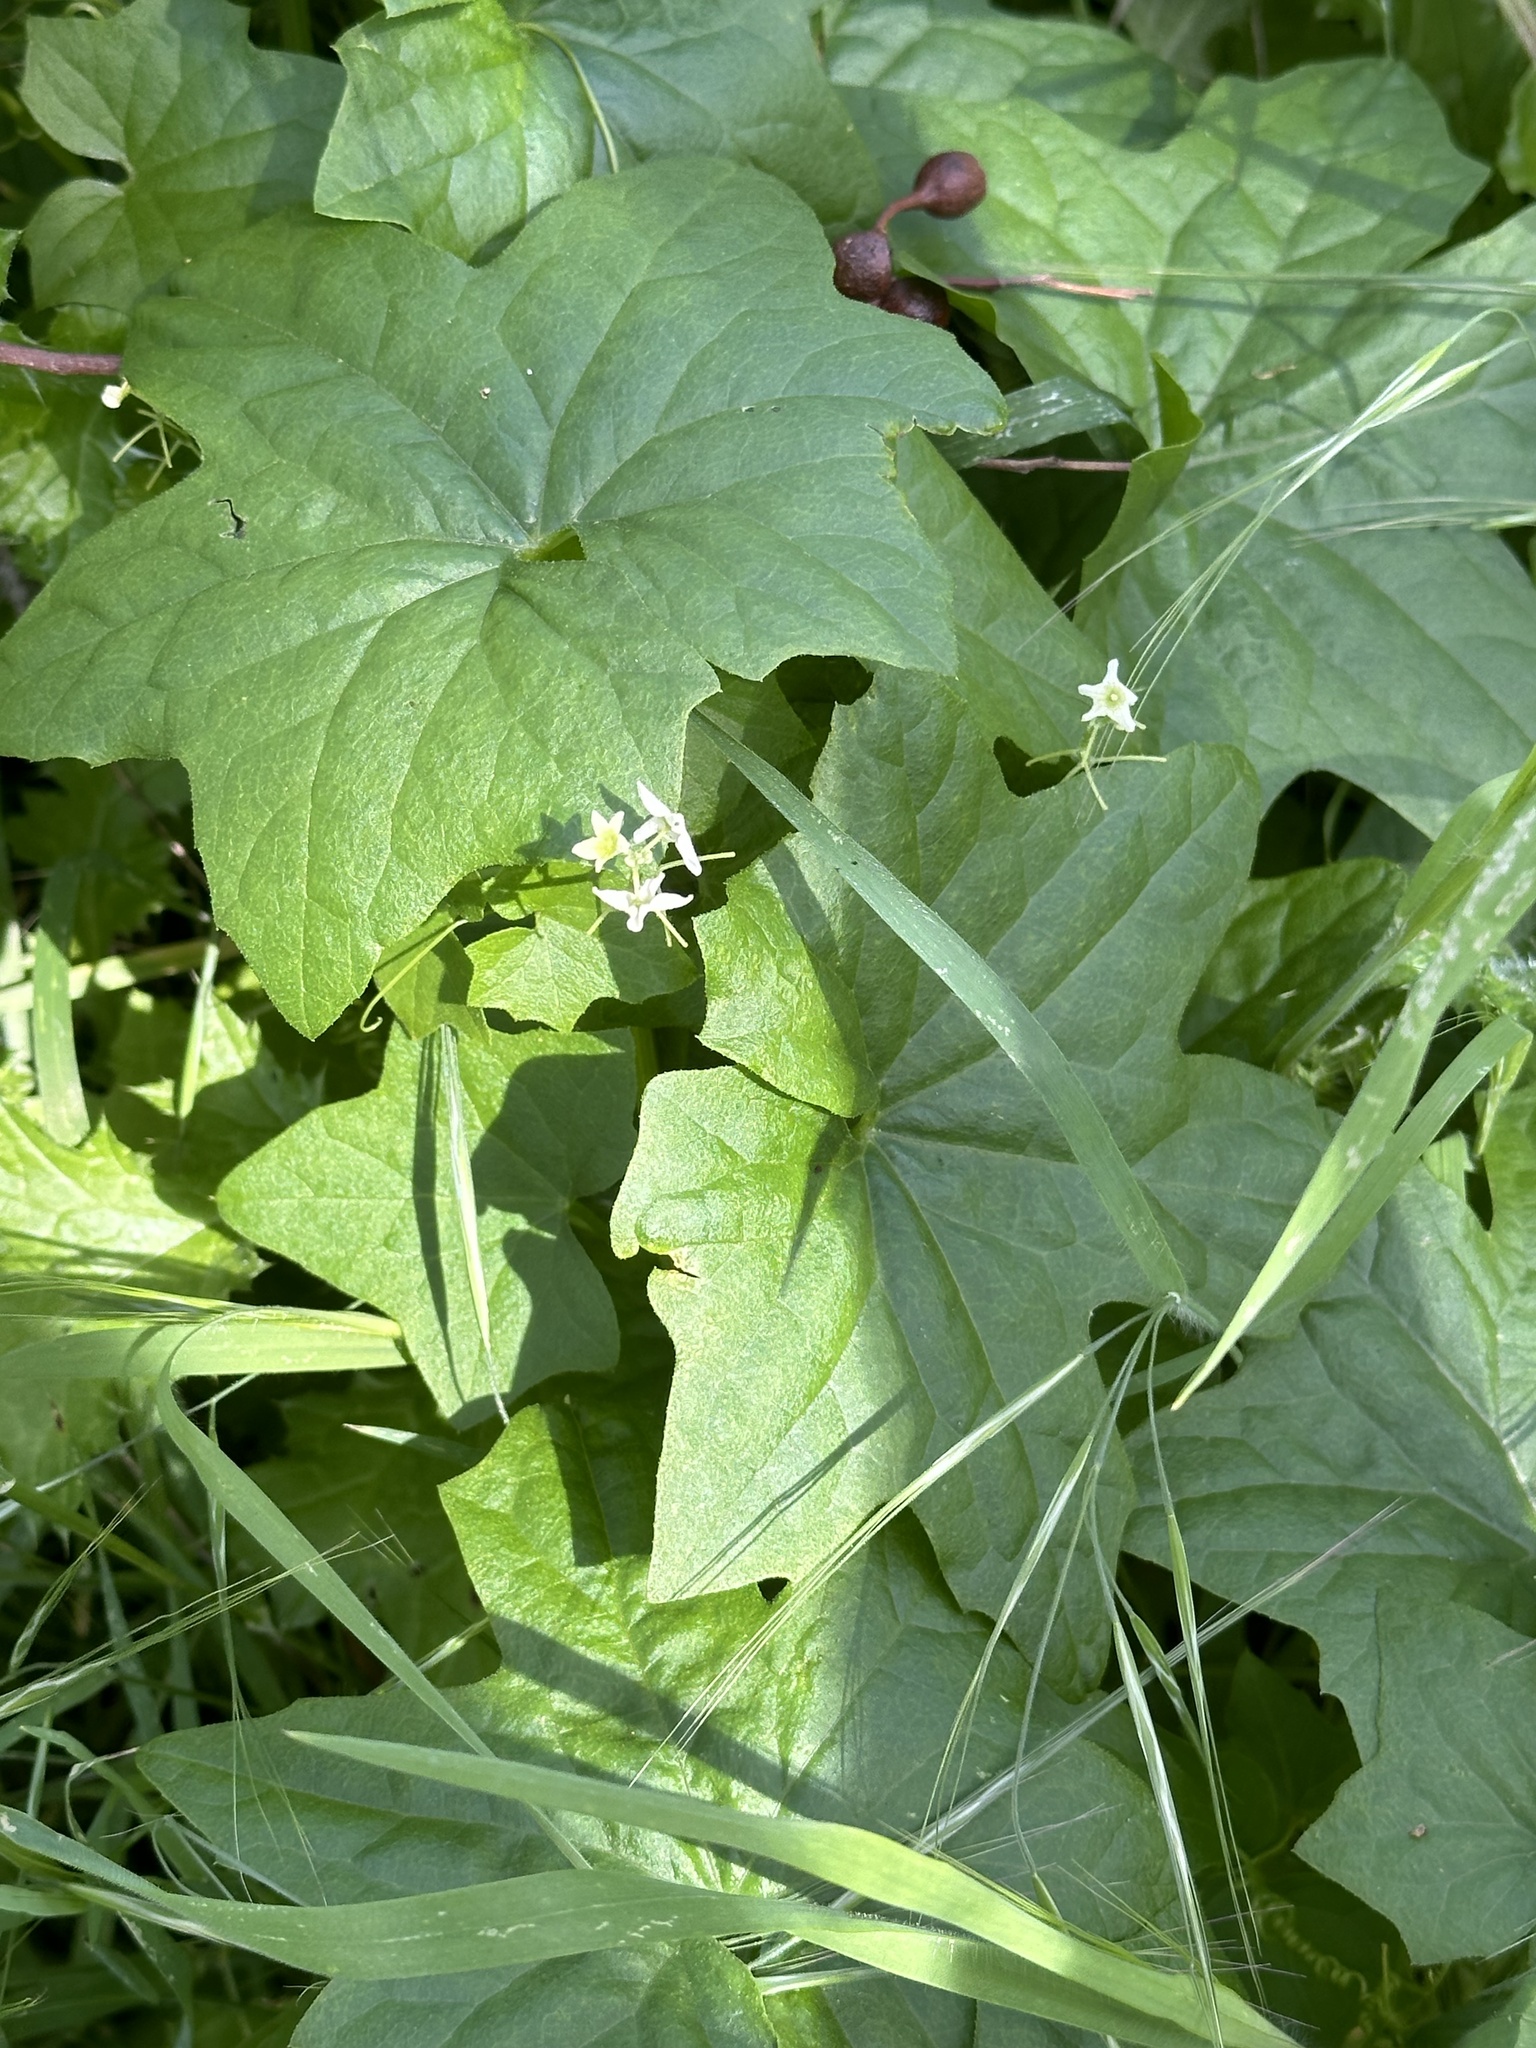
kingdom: Plantae
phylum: Tracheophyta
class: Magnoliopsida
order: Cucurbitales
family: Cucurbitaceae
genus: Marah
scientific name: Marah fabacea
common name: California manroot
